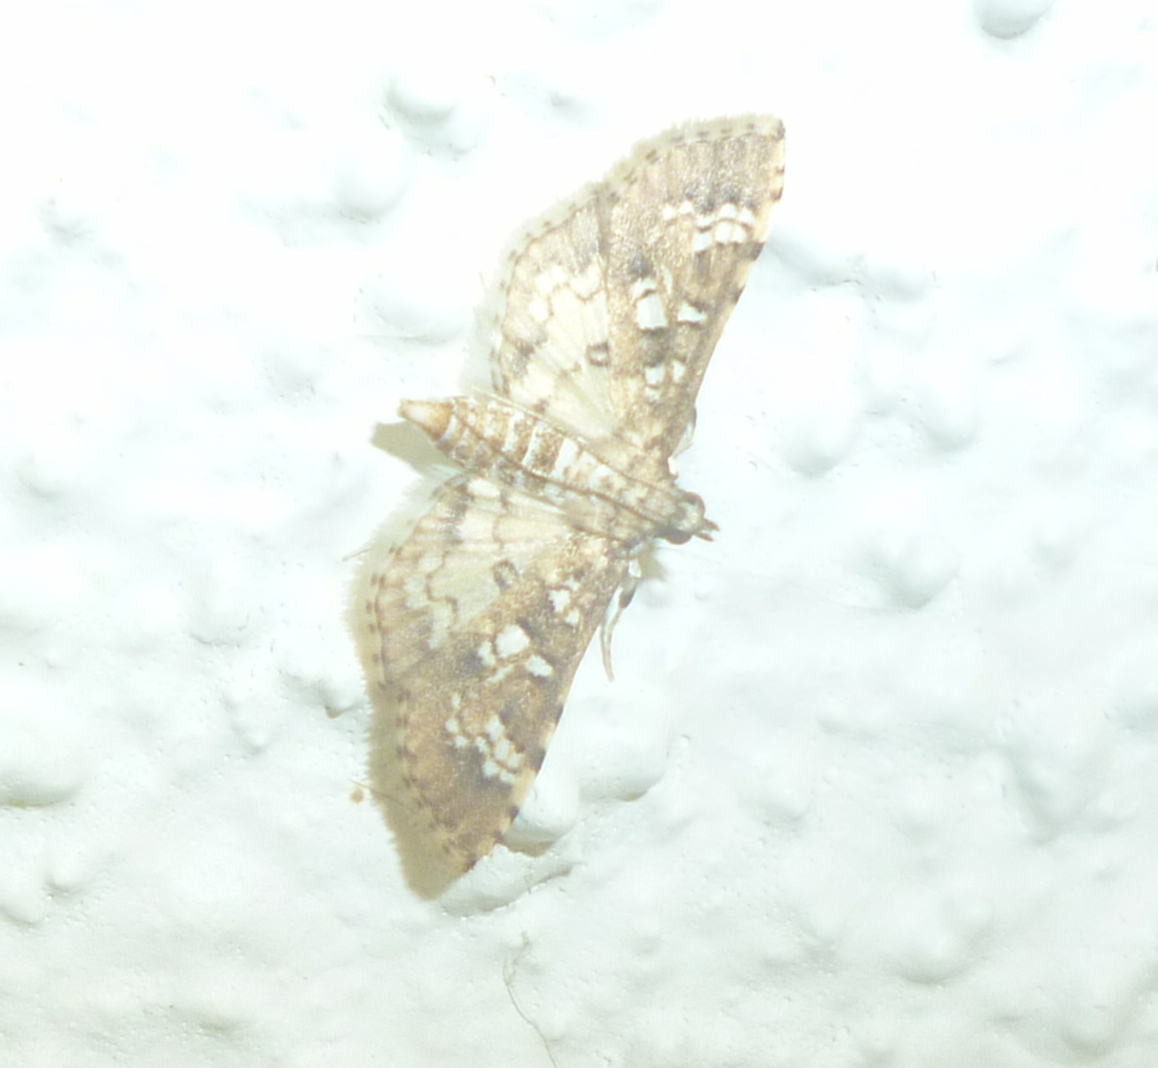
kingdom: Animalia
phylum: Arthropoda
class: Insecta
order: Lepidoptera
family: Crambidae
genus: Samea
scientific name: Samea multiplicalis
